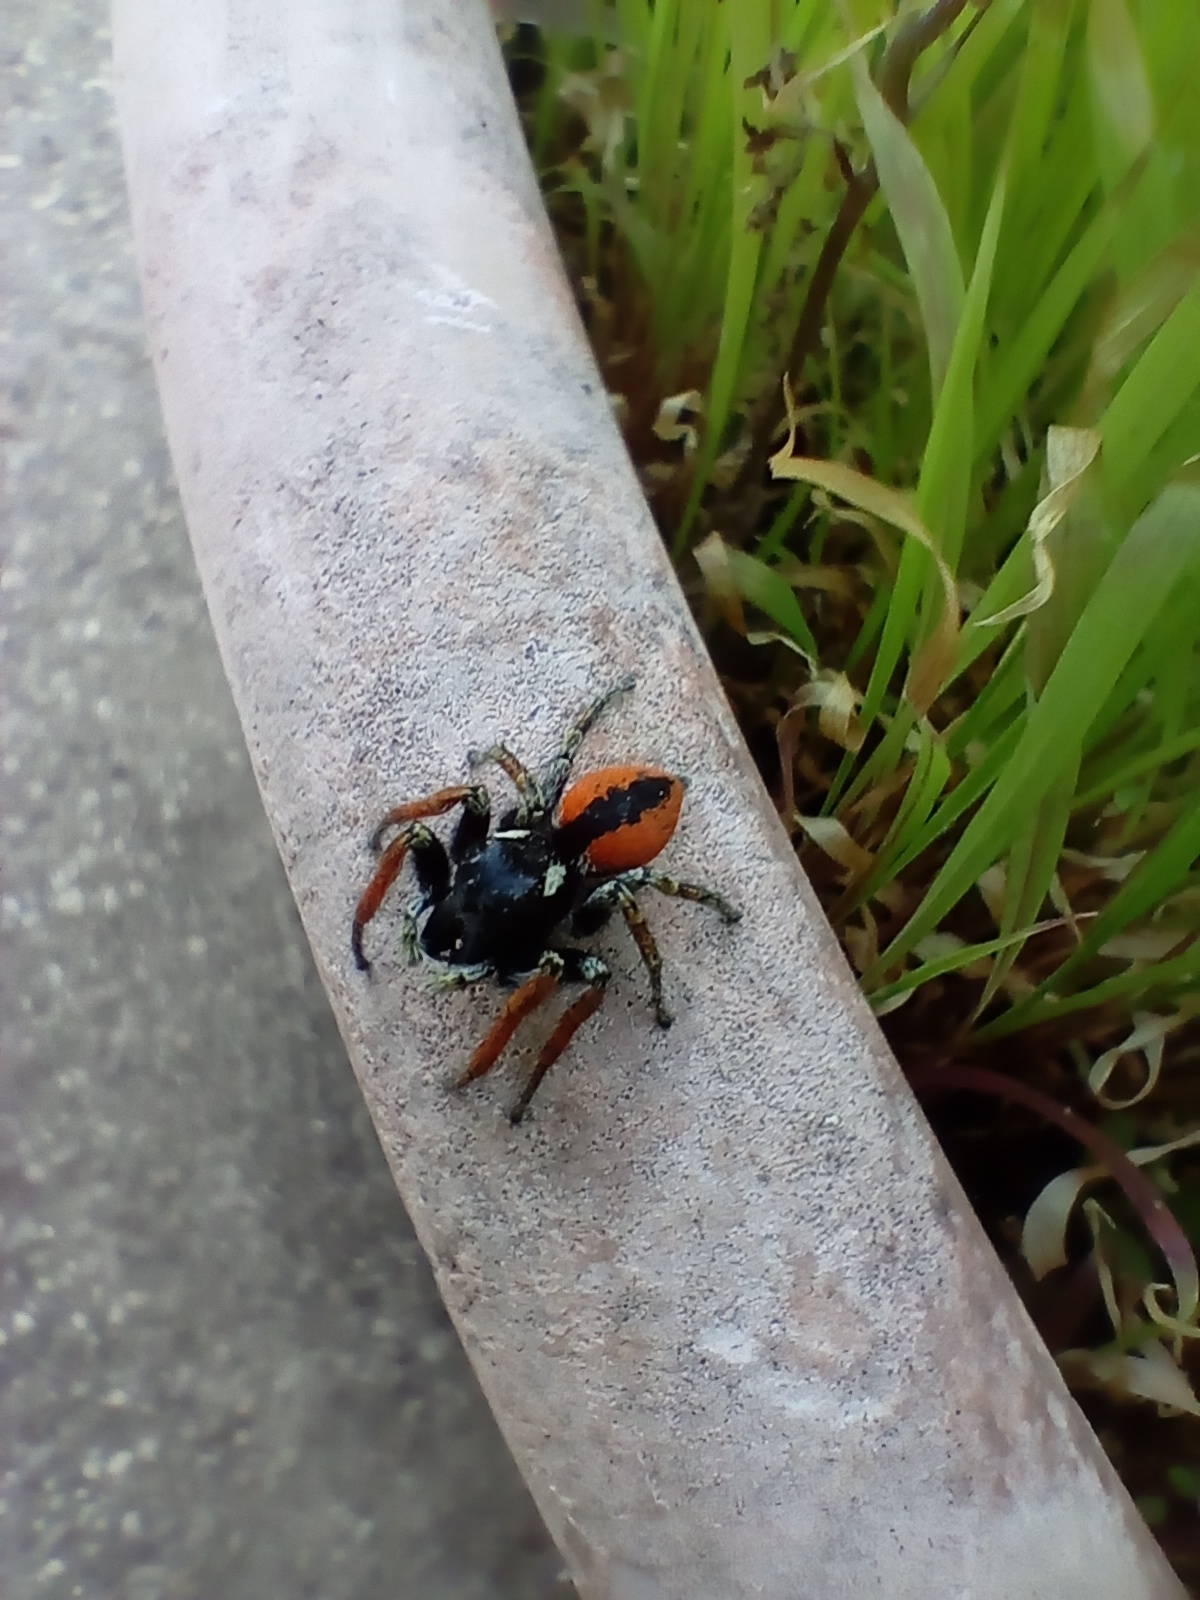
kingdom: Animalia
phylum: Arthropoda
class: Arachnida
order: Araneae
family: Salticidae
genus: Philaeus
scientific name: Philaeus chrysops
